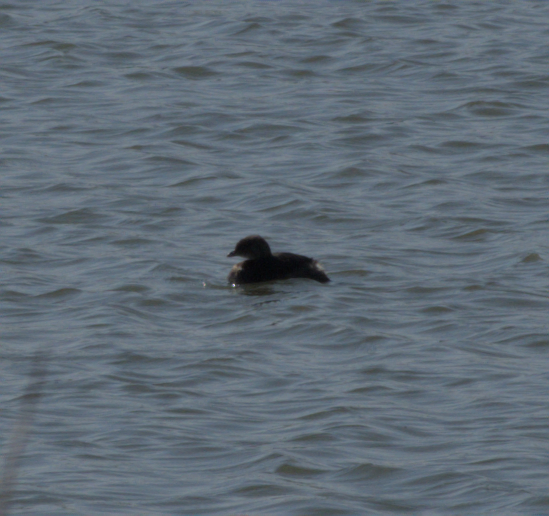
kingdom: Animalia
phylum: Chordata
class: Aves
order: Podicipediformes
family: Podicipedidae
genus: Podilymbus
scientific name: Podilymbus podiceps
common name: Pied-billed grebe
